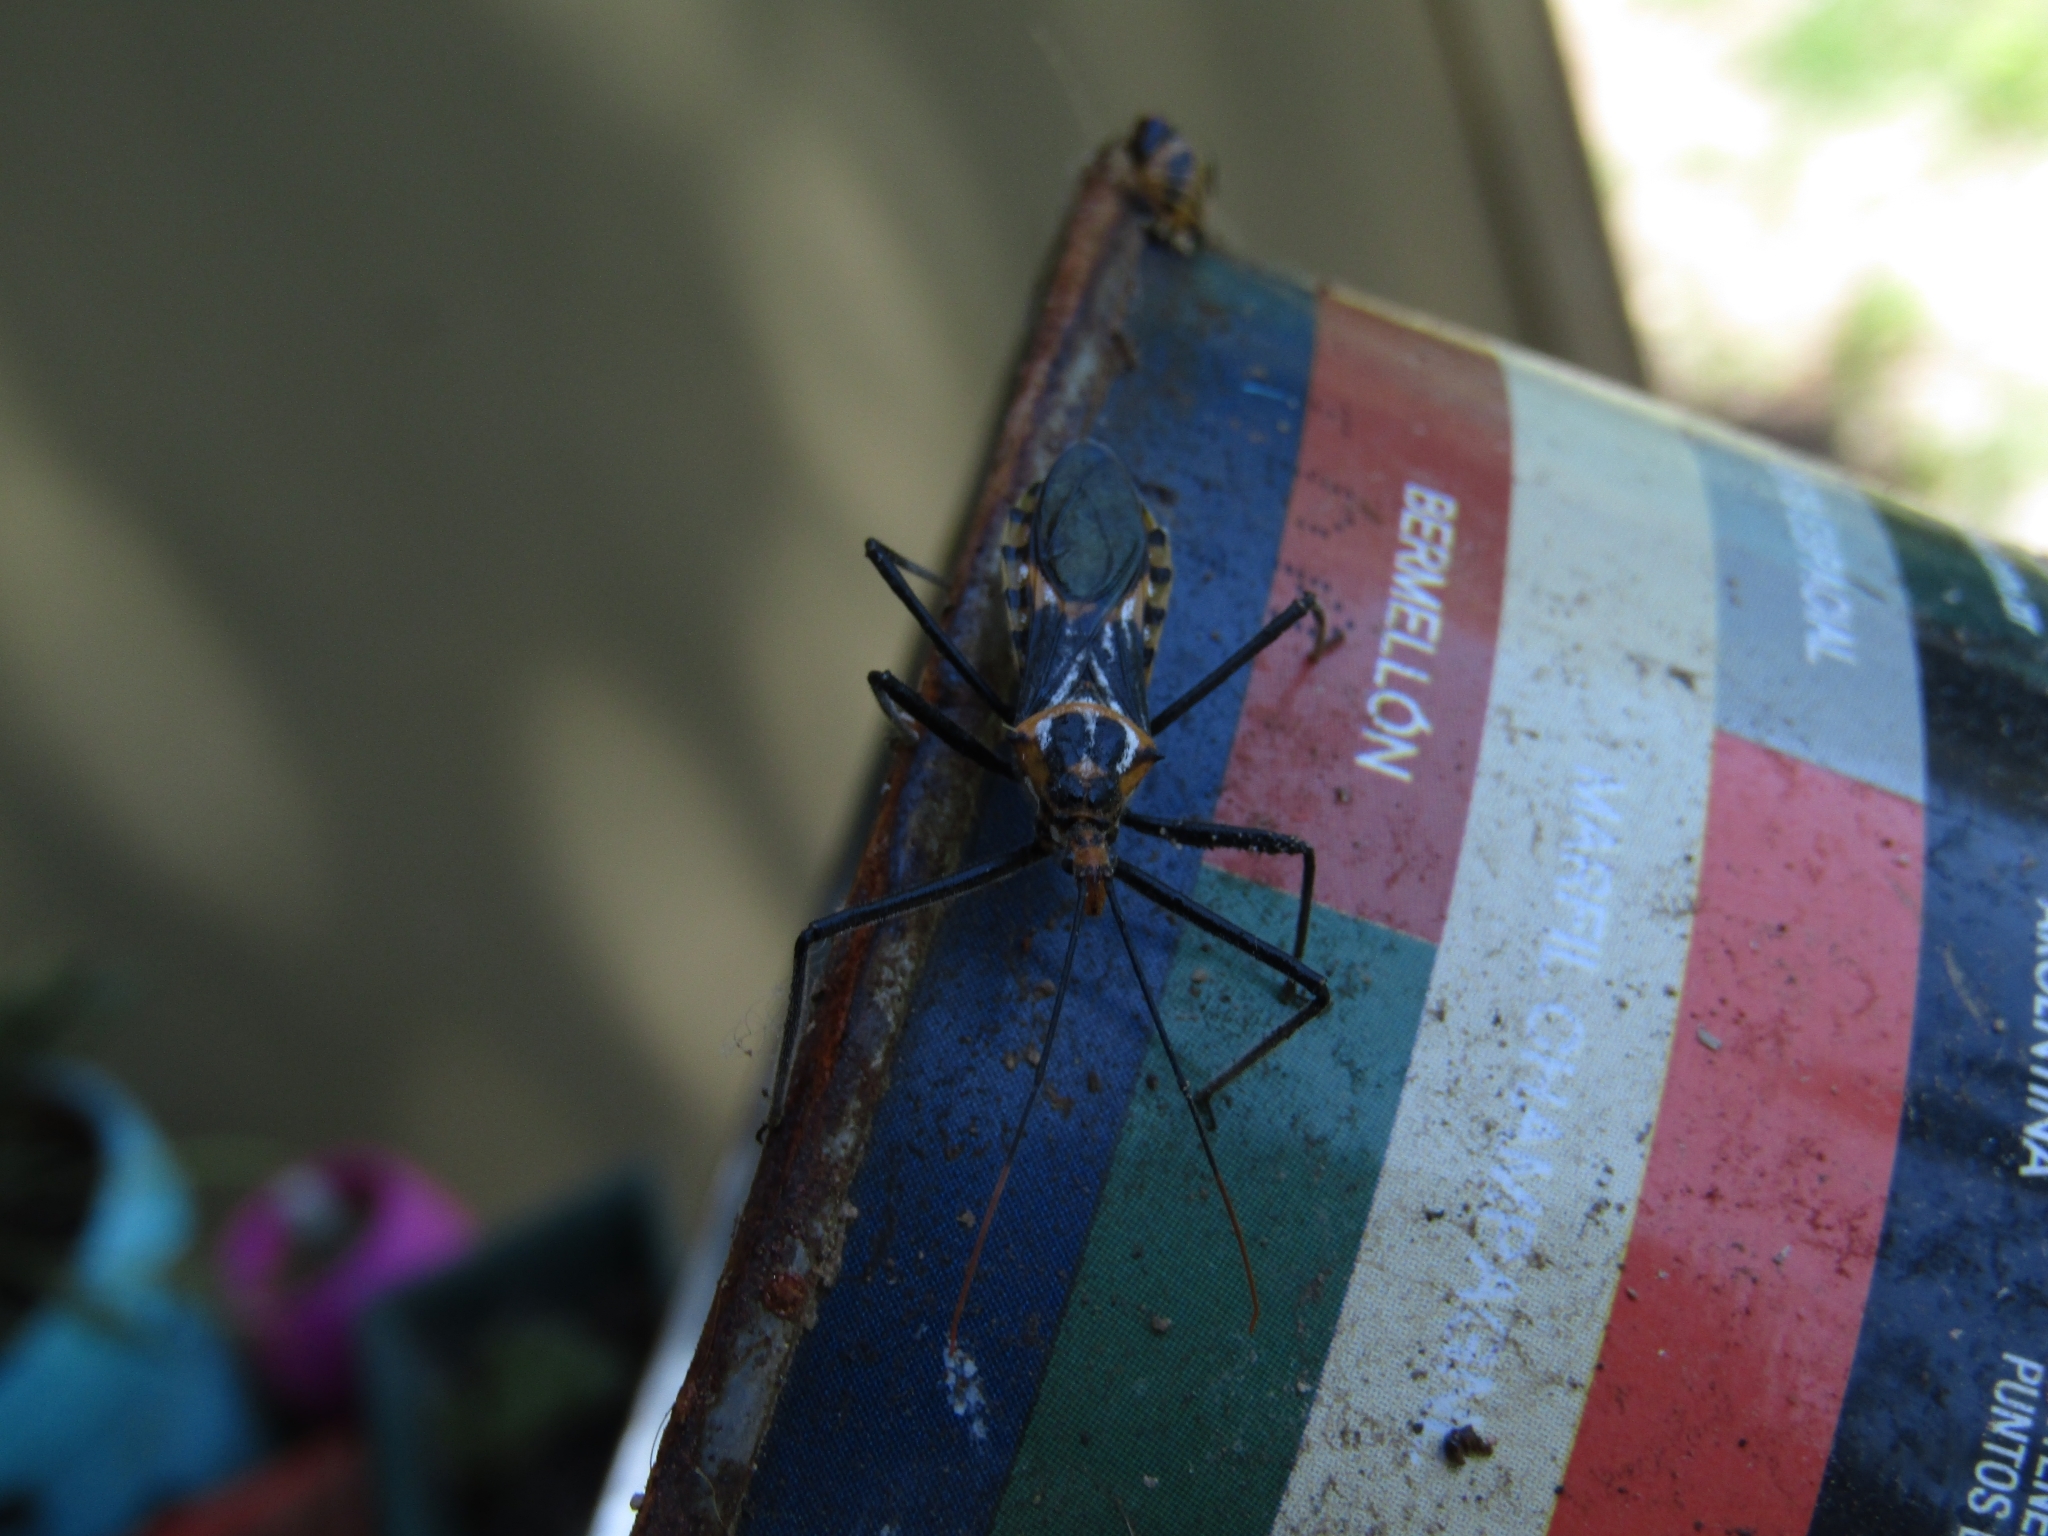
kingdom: Animalia
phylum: Arthropoda
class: Insecta
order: Hemiptera
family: Reduviidae
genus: Zelus
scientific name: Zelus leucogrammus
